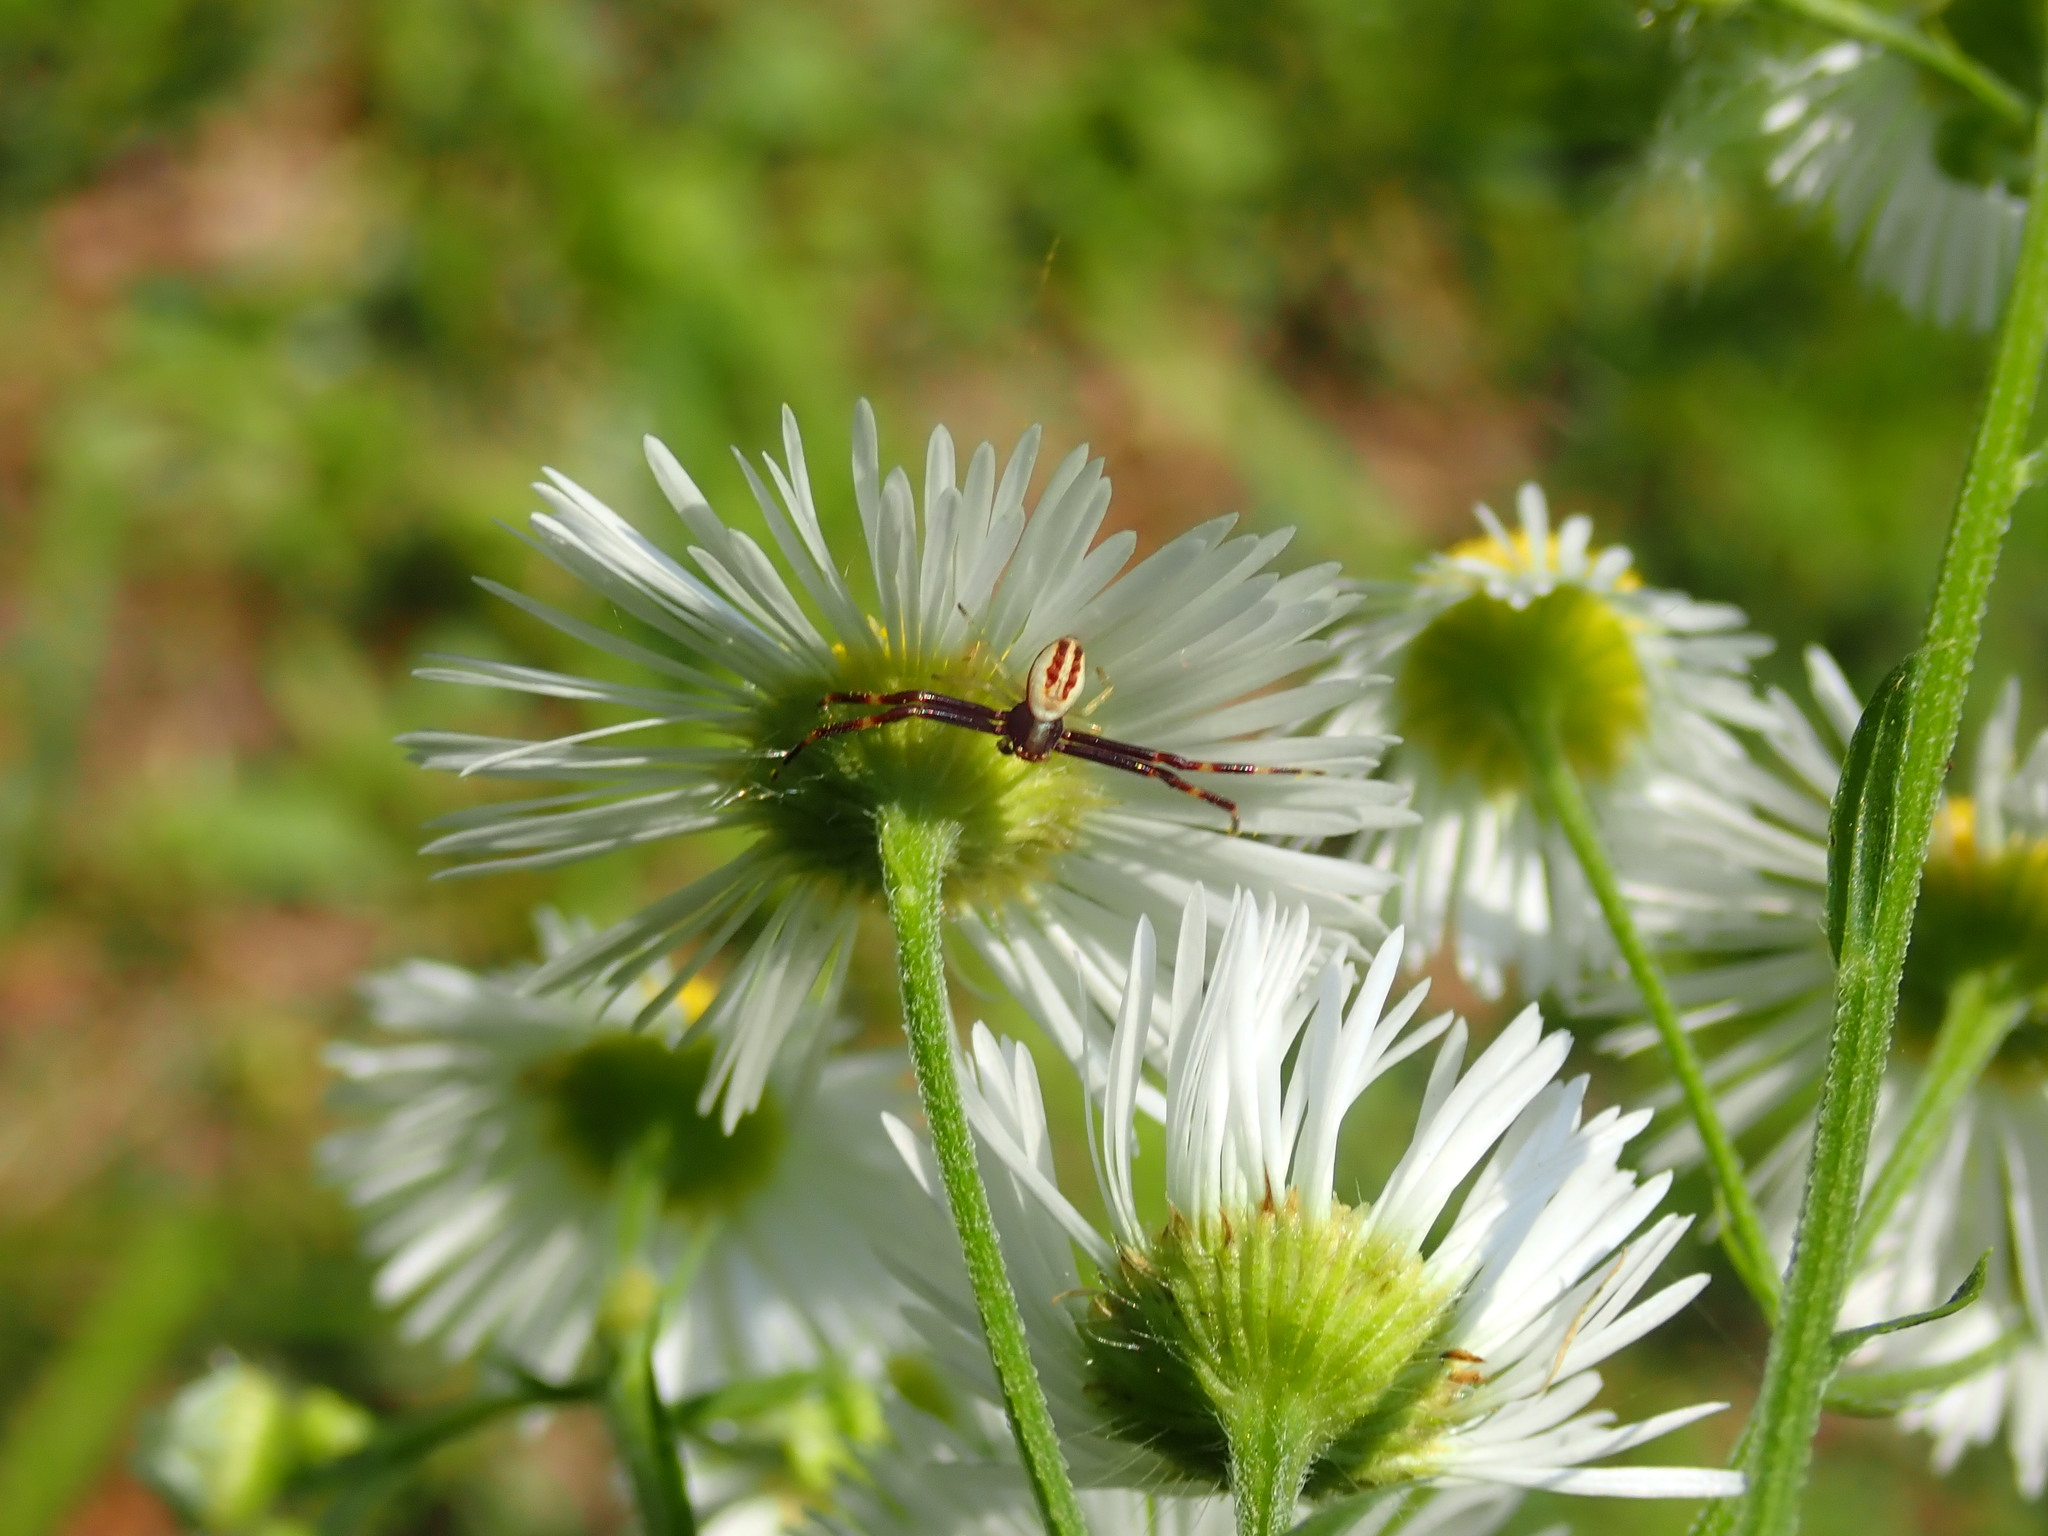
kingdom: Animalia
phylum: Arthropoda
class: Arachnida
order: Araneae
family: Thomisidae
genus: Misumena
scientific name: Misumena vatia
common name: Goldenrod crab spider
